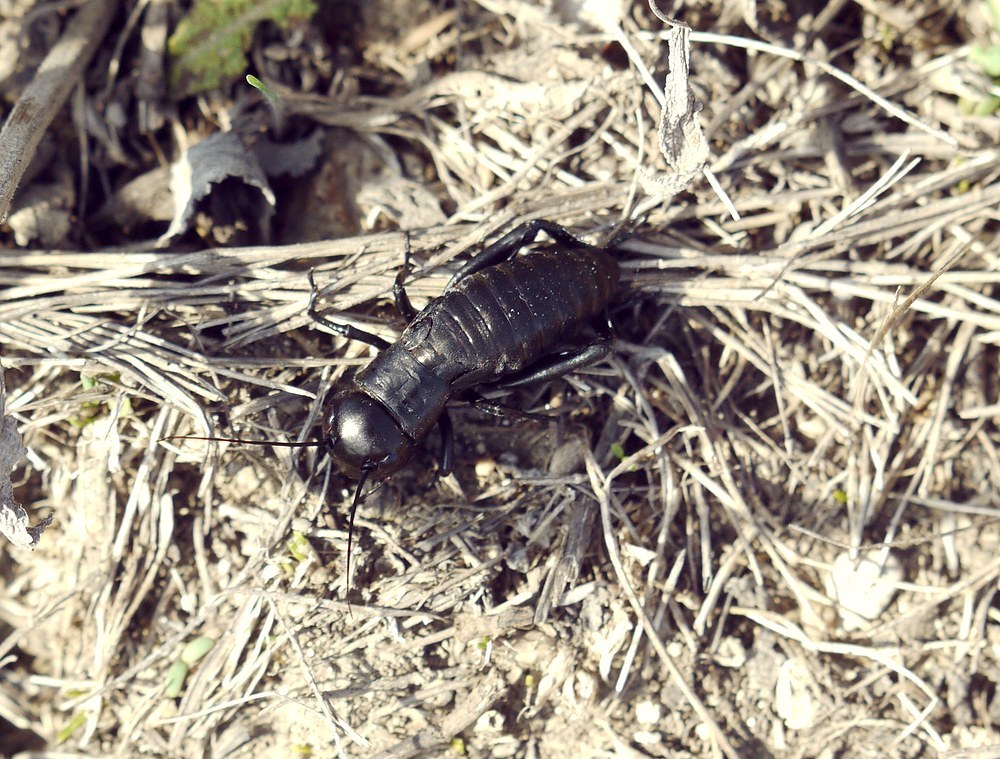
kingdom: Animalia
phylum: Arthropoda
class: Insecta
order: Orthoptera
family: Gryllidae
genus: Gryllus
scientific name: Gryllus campestris
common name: Field cricket
